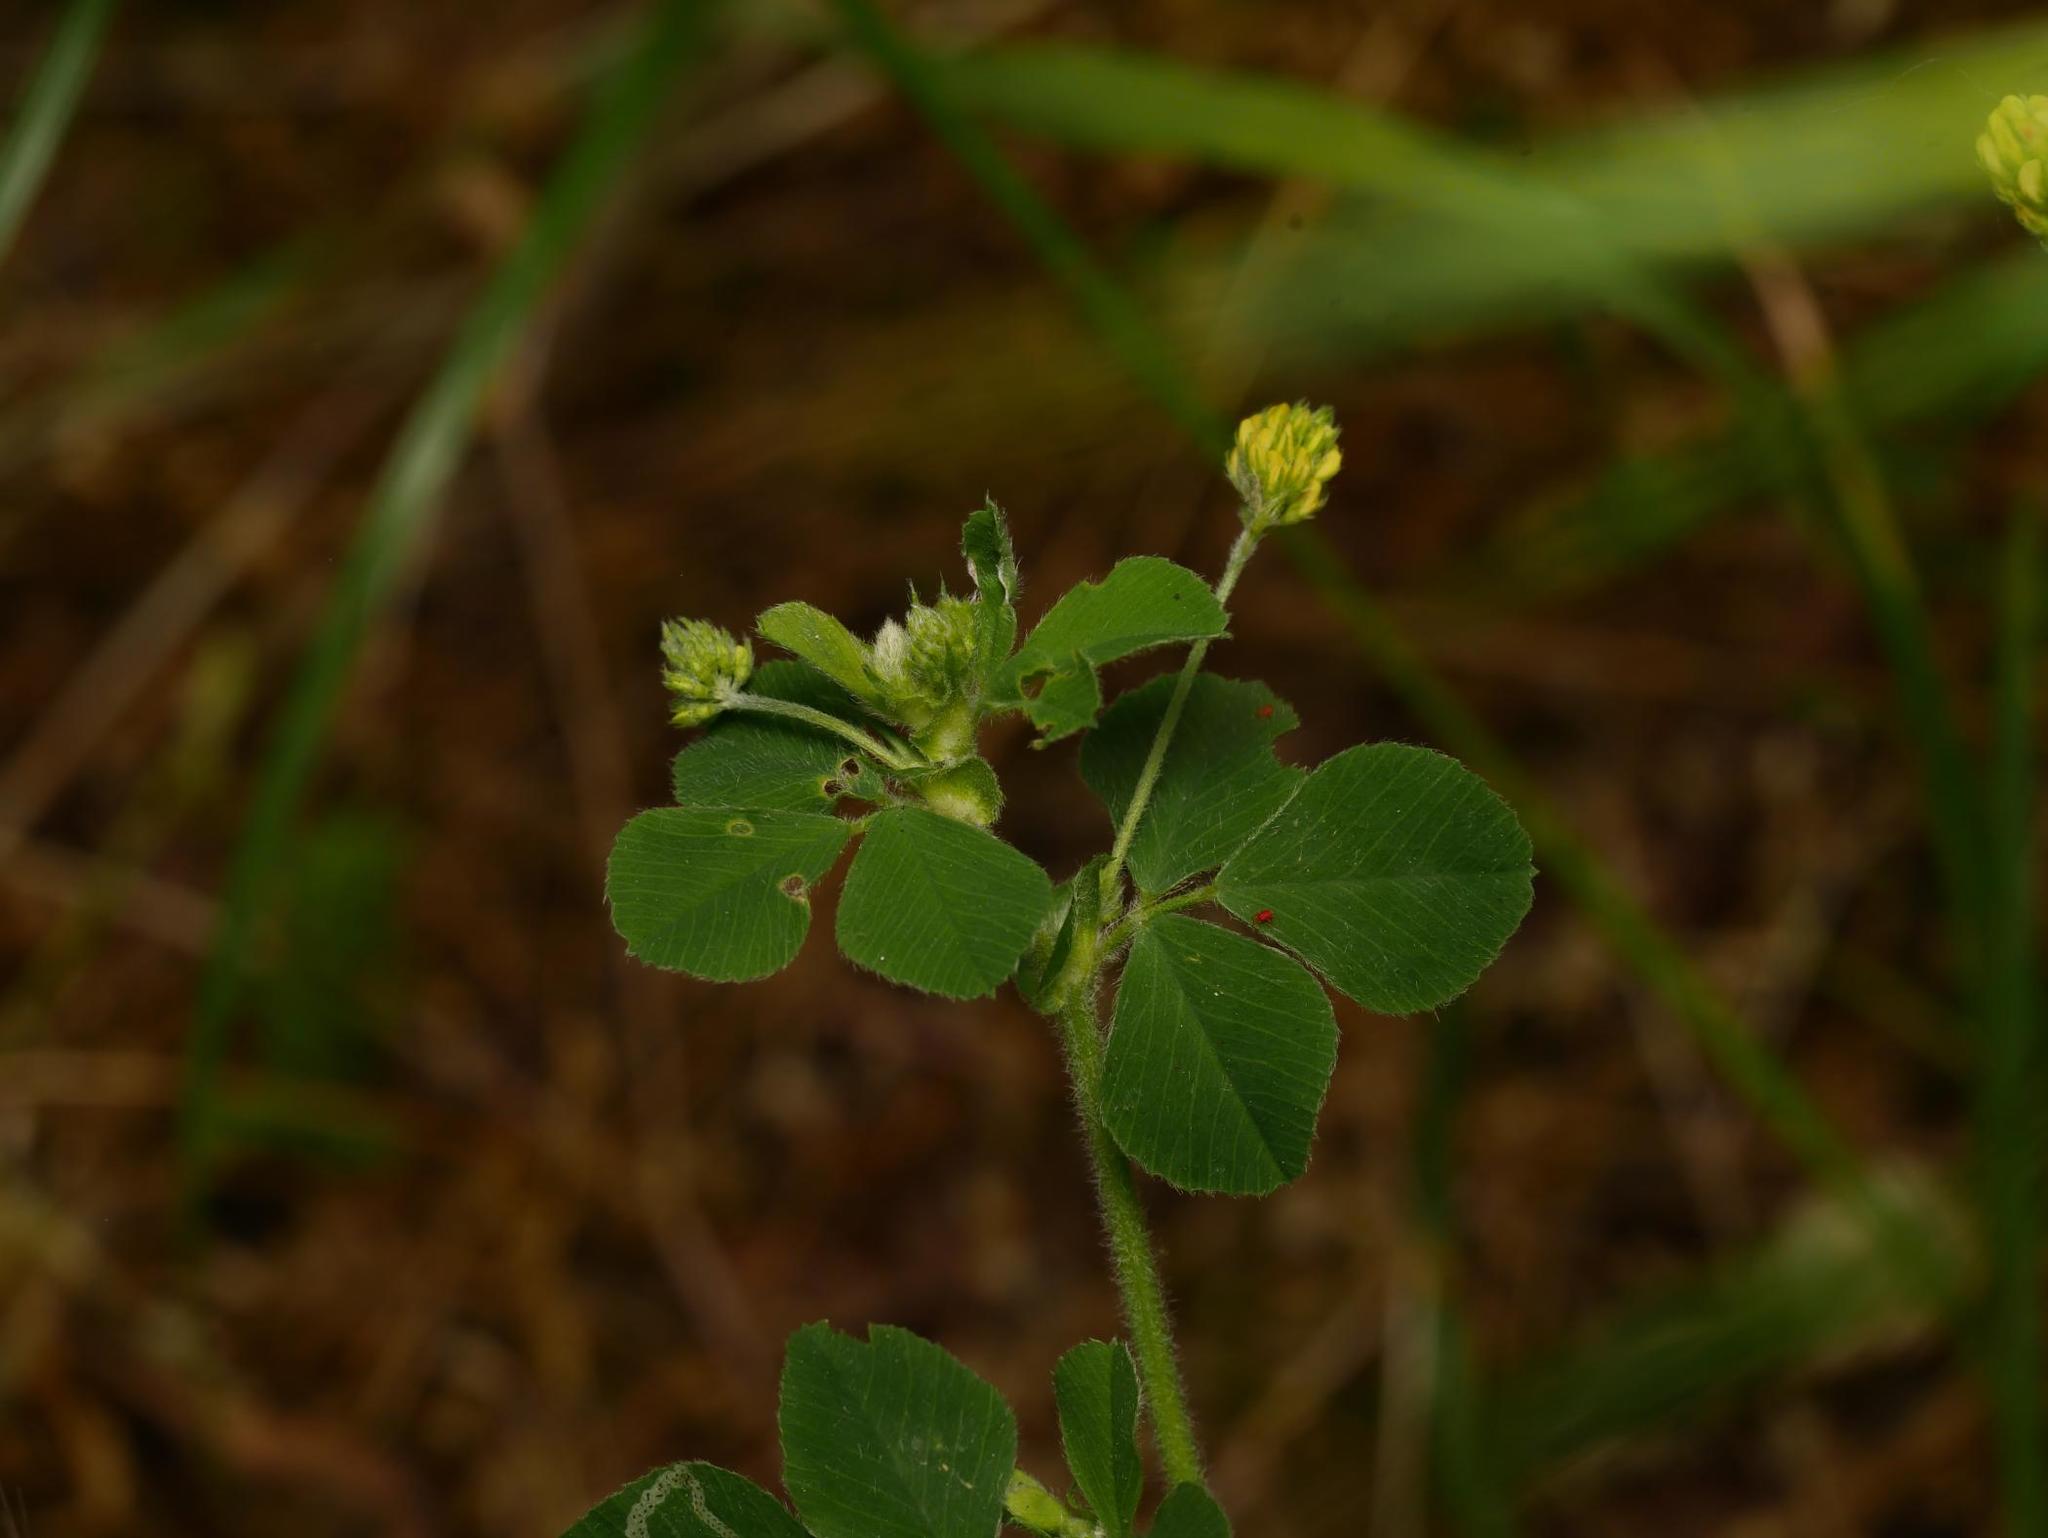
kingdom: Plantae
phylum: Tracheophyta
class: Magnoliopsida
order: Fabales
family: Fabaceae
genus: Medicago
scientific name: Medicago lupulina
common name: Black medick
